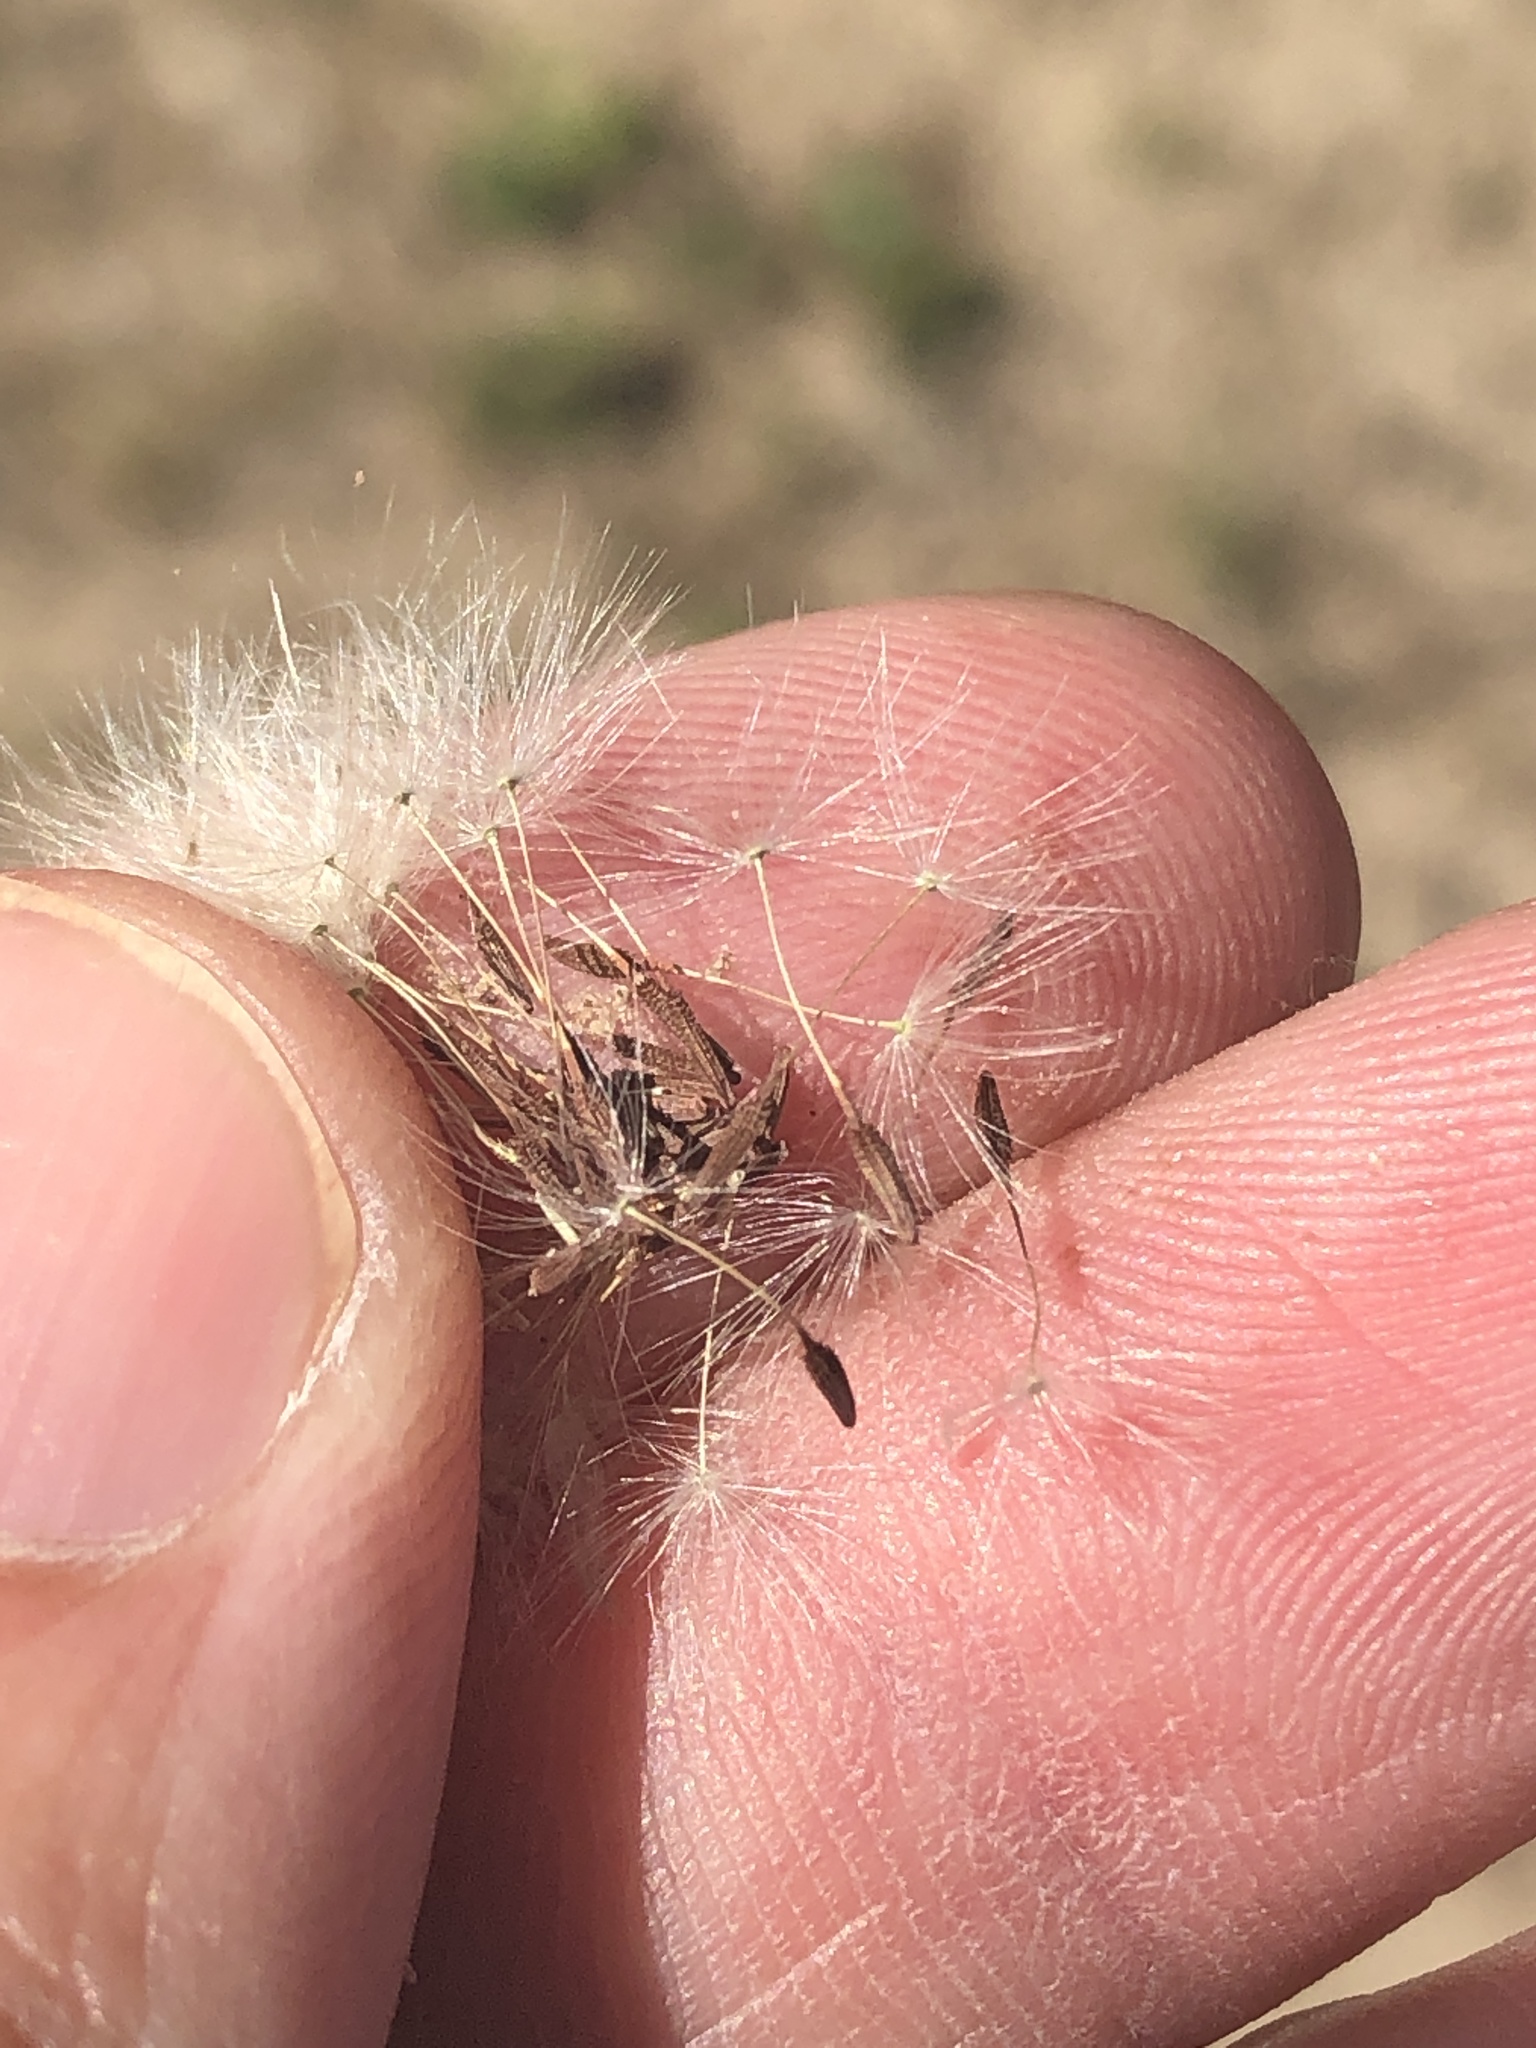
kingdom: Plantae
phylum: Tracheophyta
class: Magnoliopsida
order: Asterales
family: Asteraceae
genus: Taraxacum
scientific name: Taraxacum officinale
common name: Common dandelion
